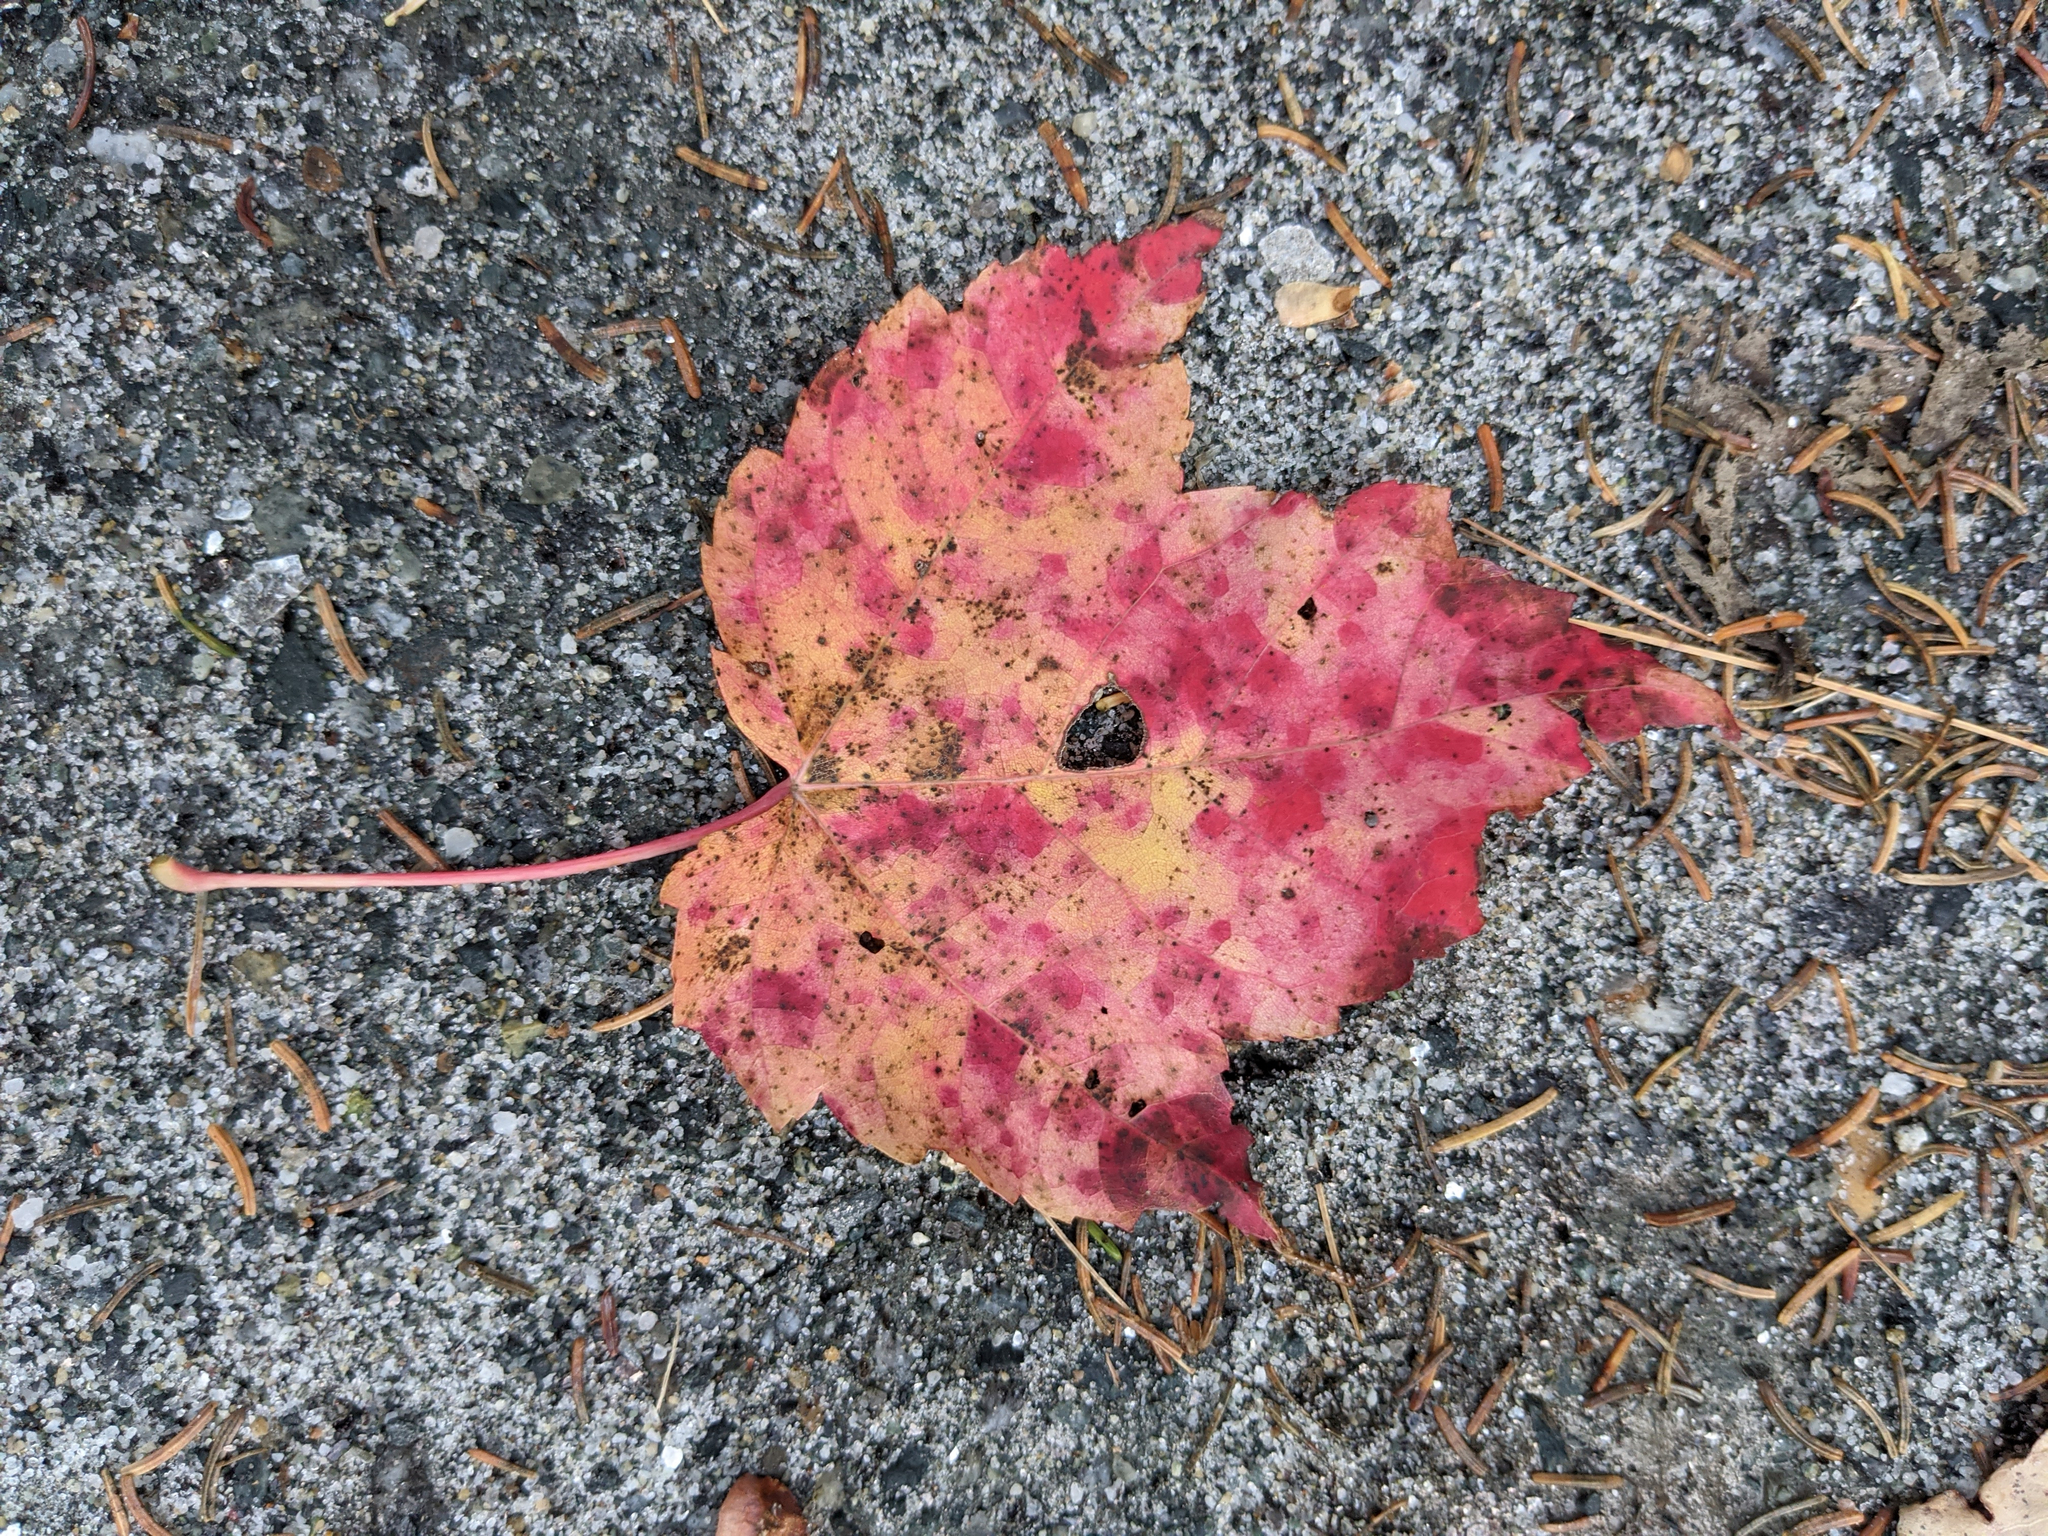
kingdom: Plantae
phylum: Tracheophyta
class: Magnoliopsida
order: Sapindales
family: Sapindaceae
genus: Acer
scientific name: Acer rubrum
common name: Red maple
